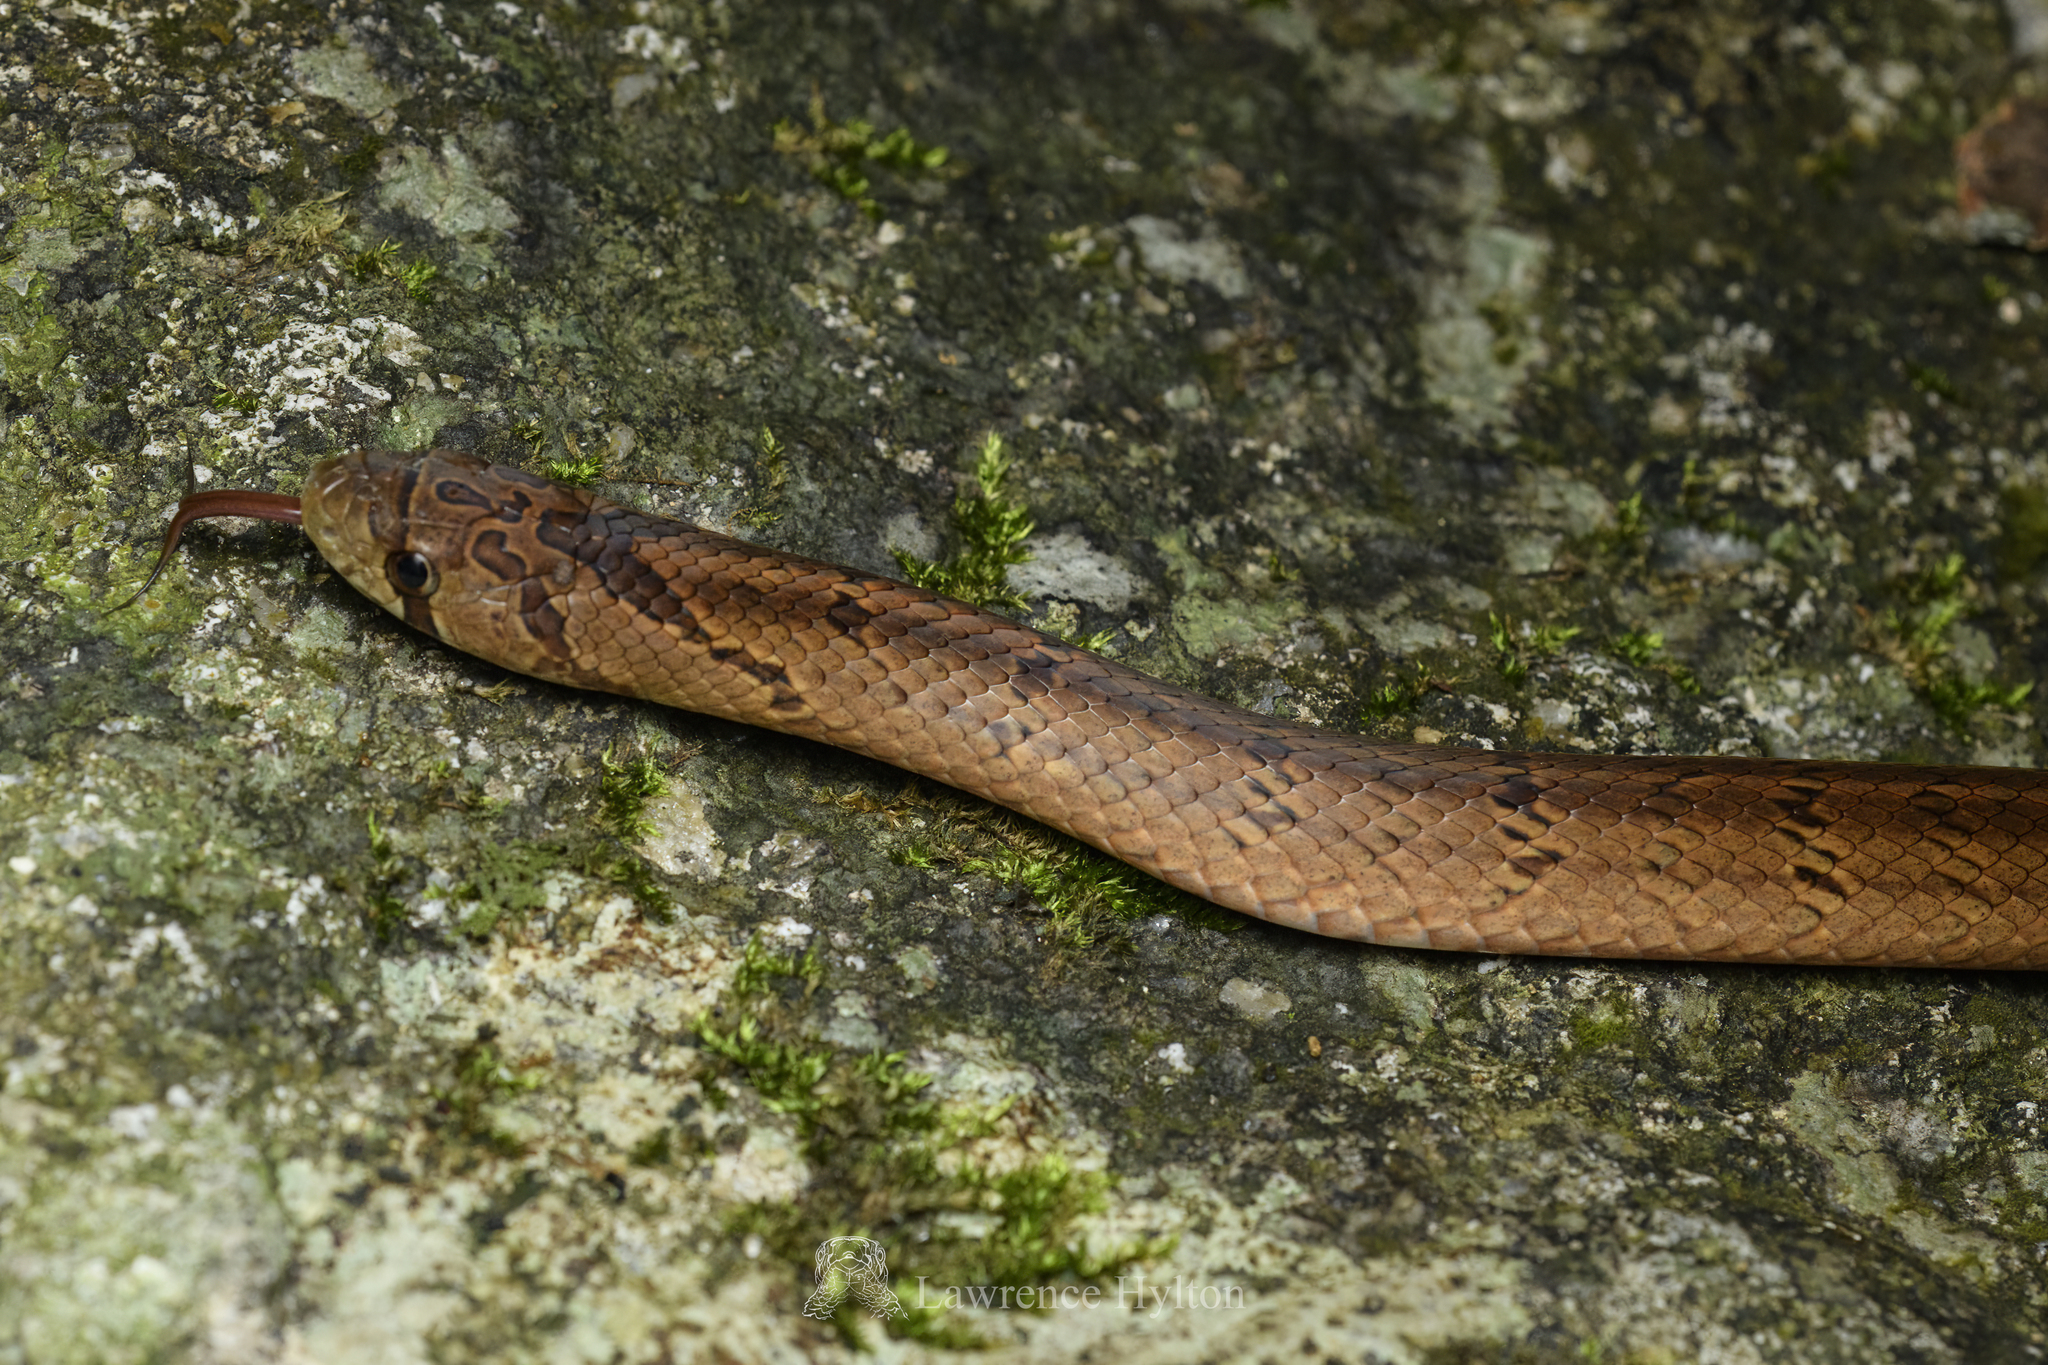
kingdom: Animalia
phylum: Chordata
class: Squamata
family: Colubridae
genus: Oligodon
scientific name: Oligodon formosanus
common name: Formosa kukri snake
